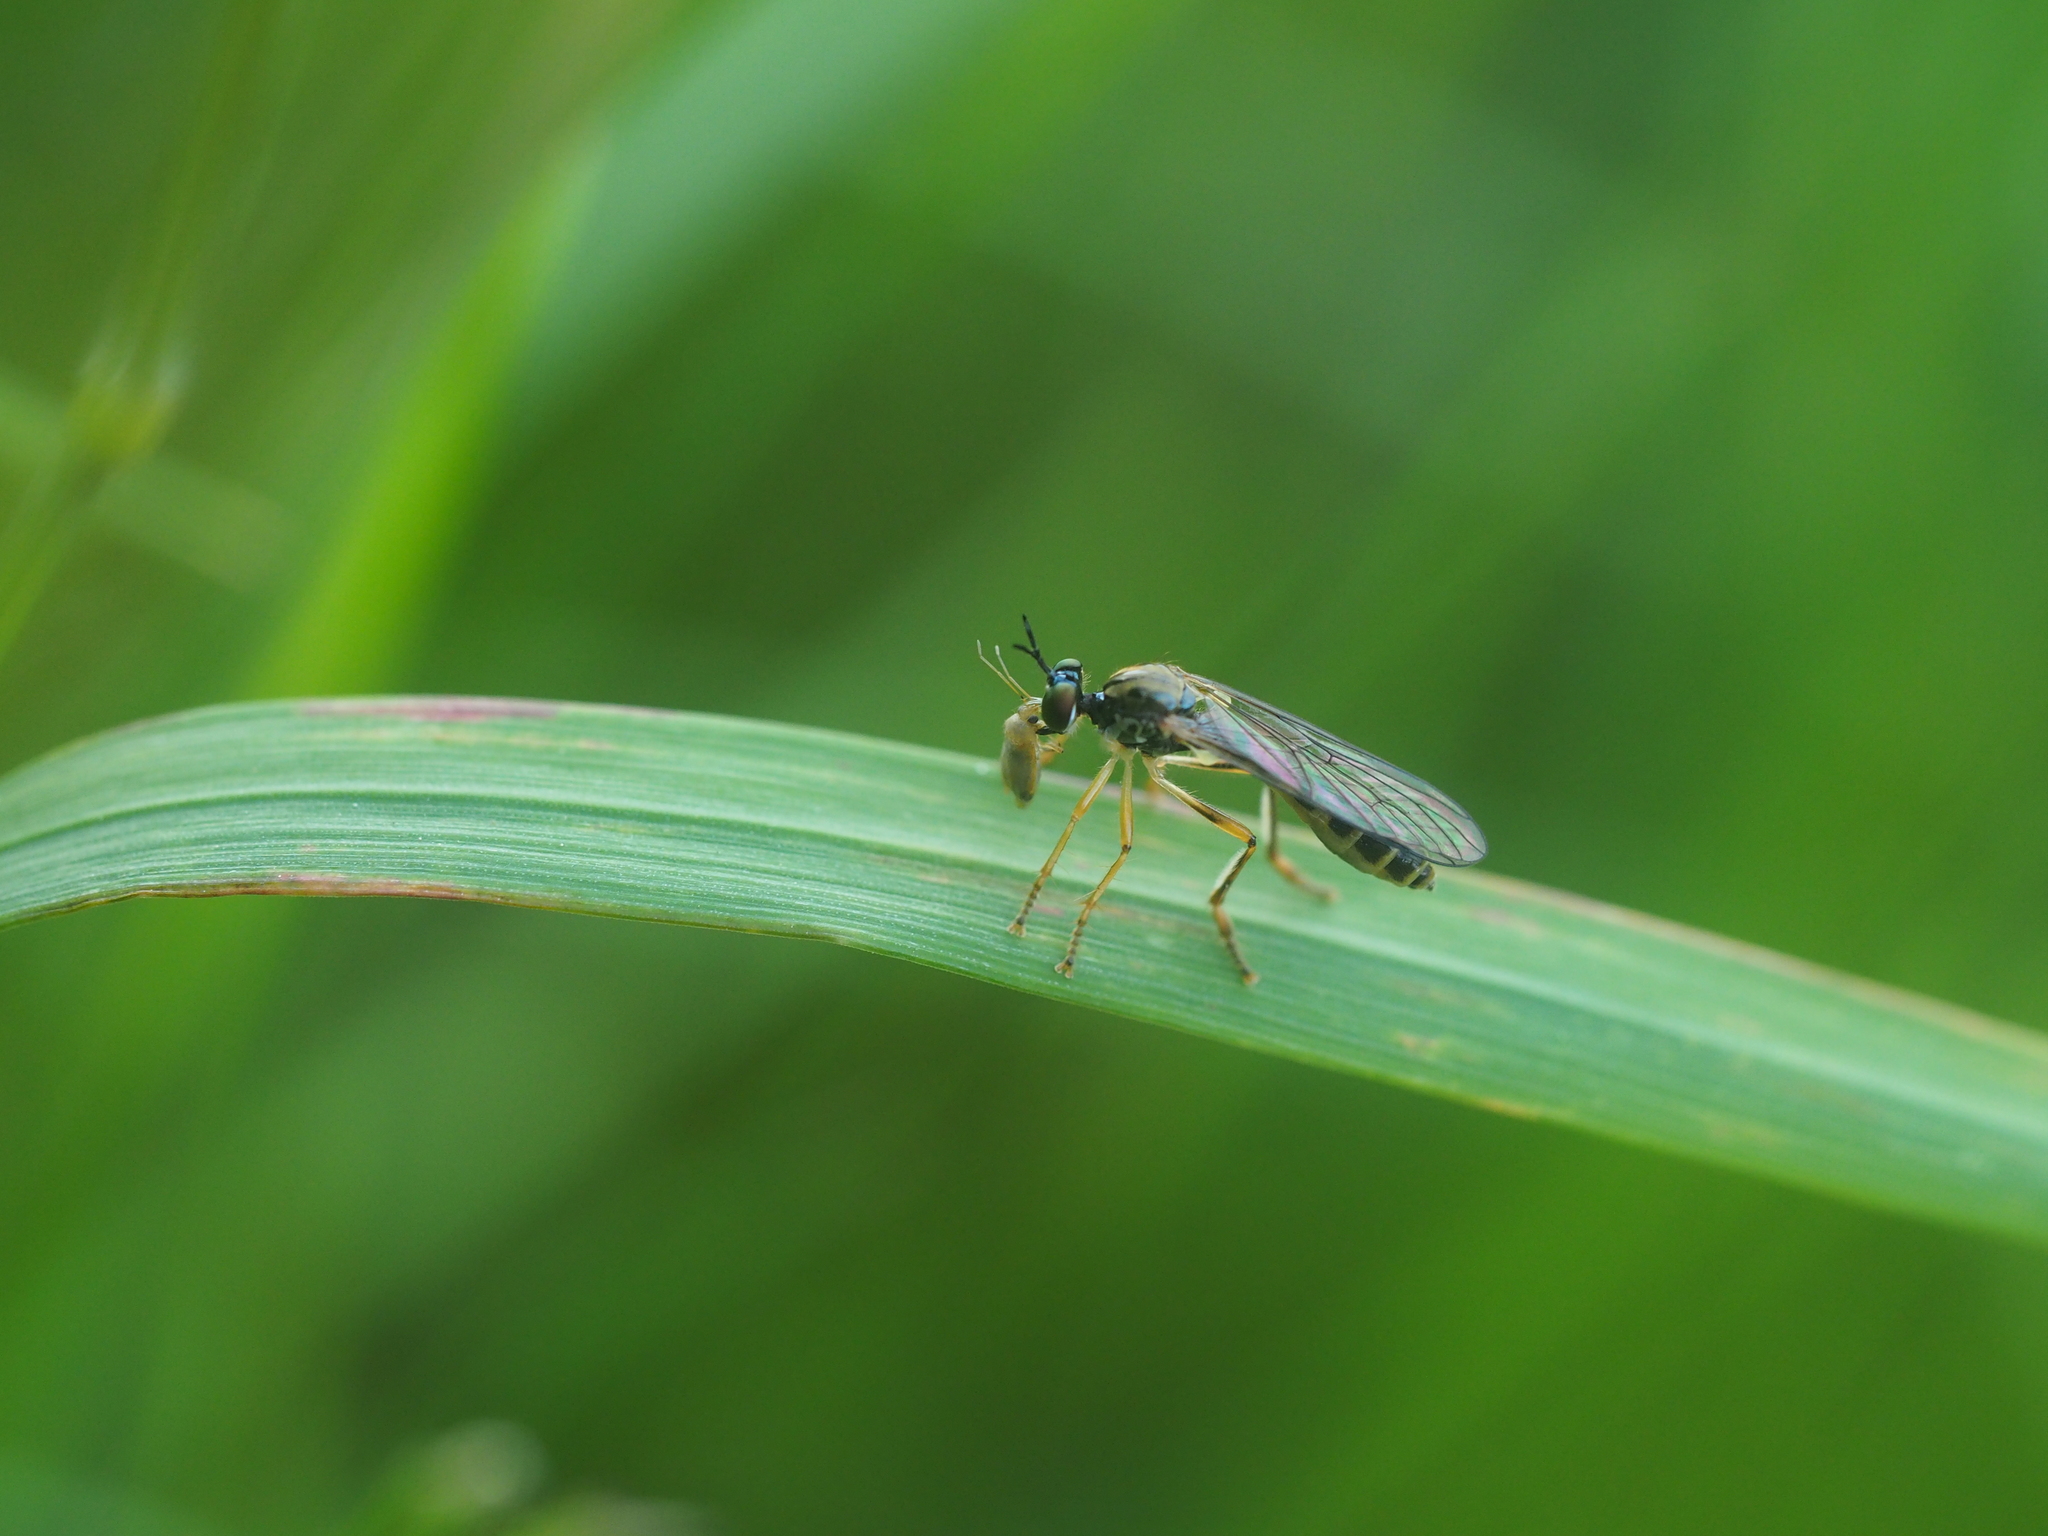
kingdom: Animalia
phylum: Arthropoda
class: Insecta
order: Diptera
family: Asilidae
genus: Dioctria
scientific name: Dioctria linearis
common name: Small yellow-legged robberfly
